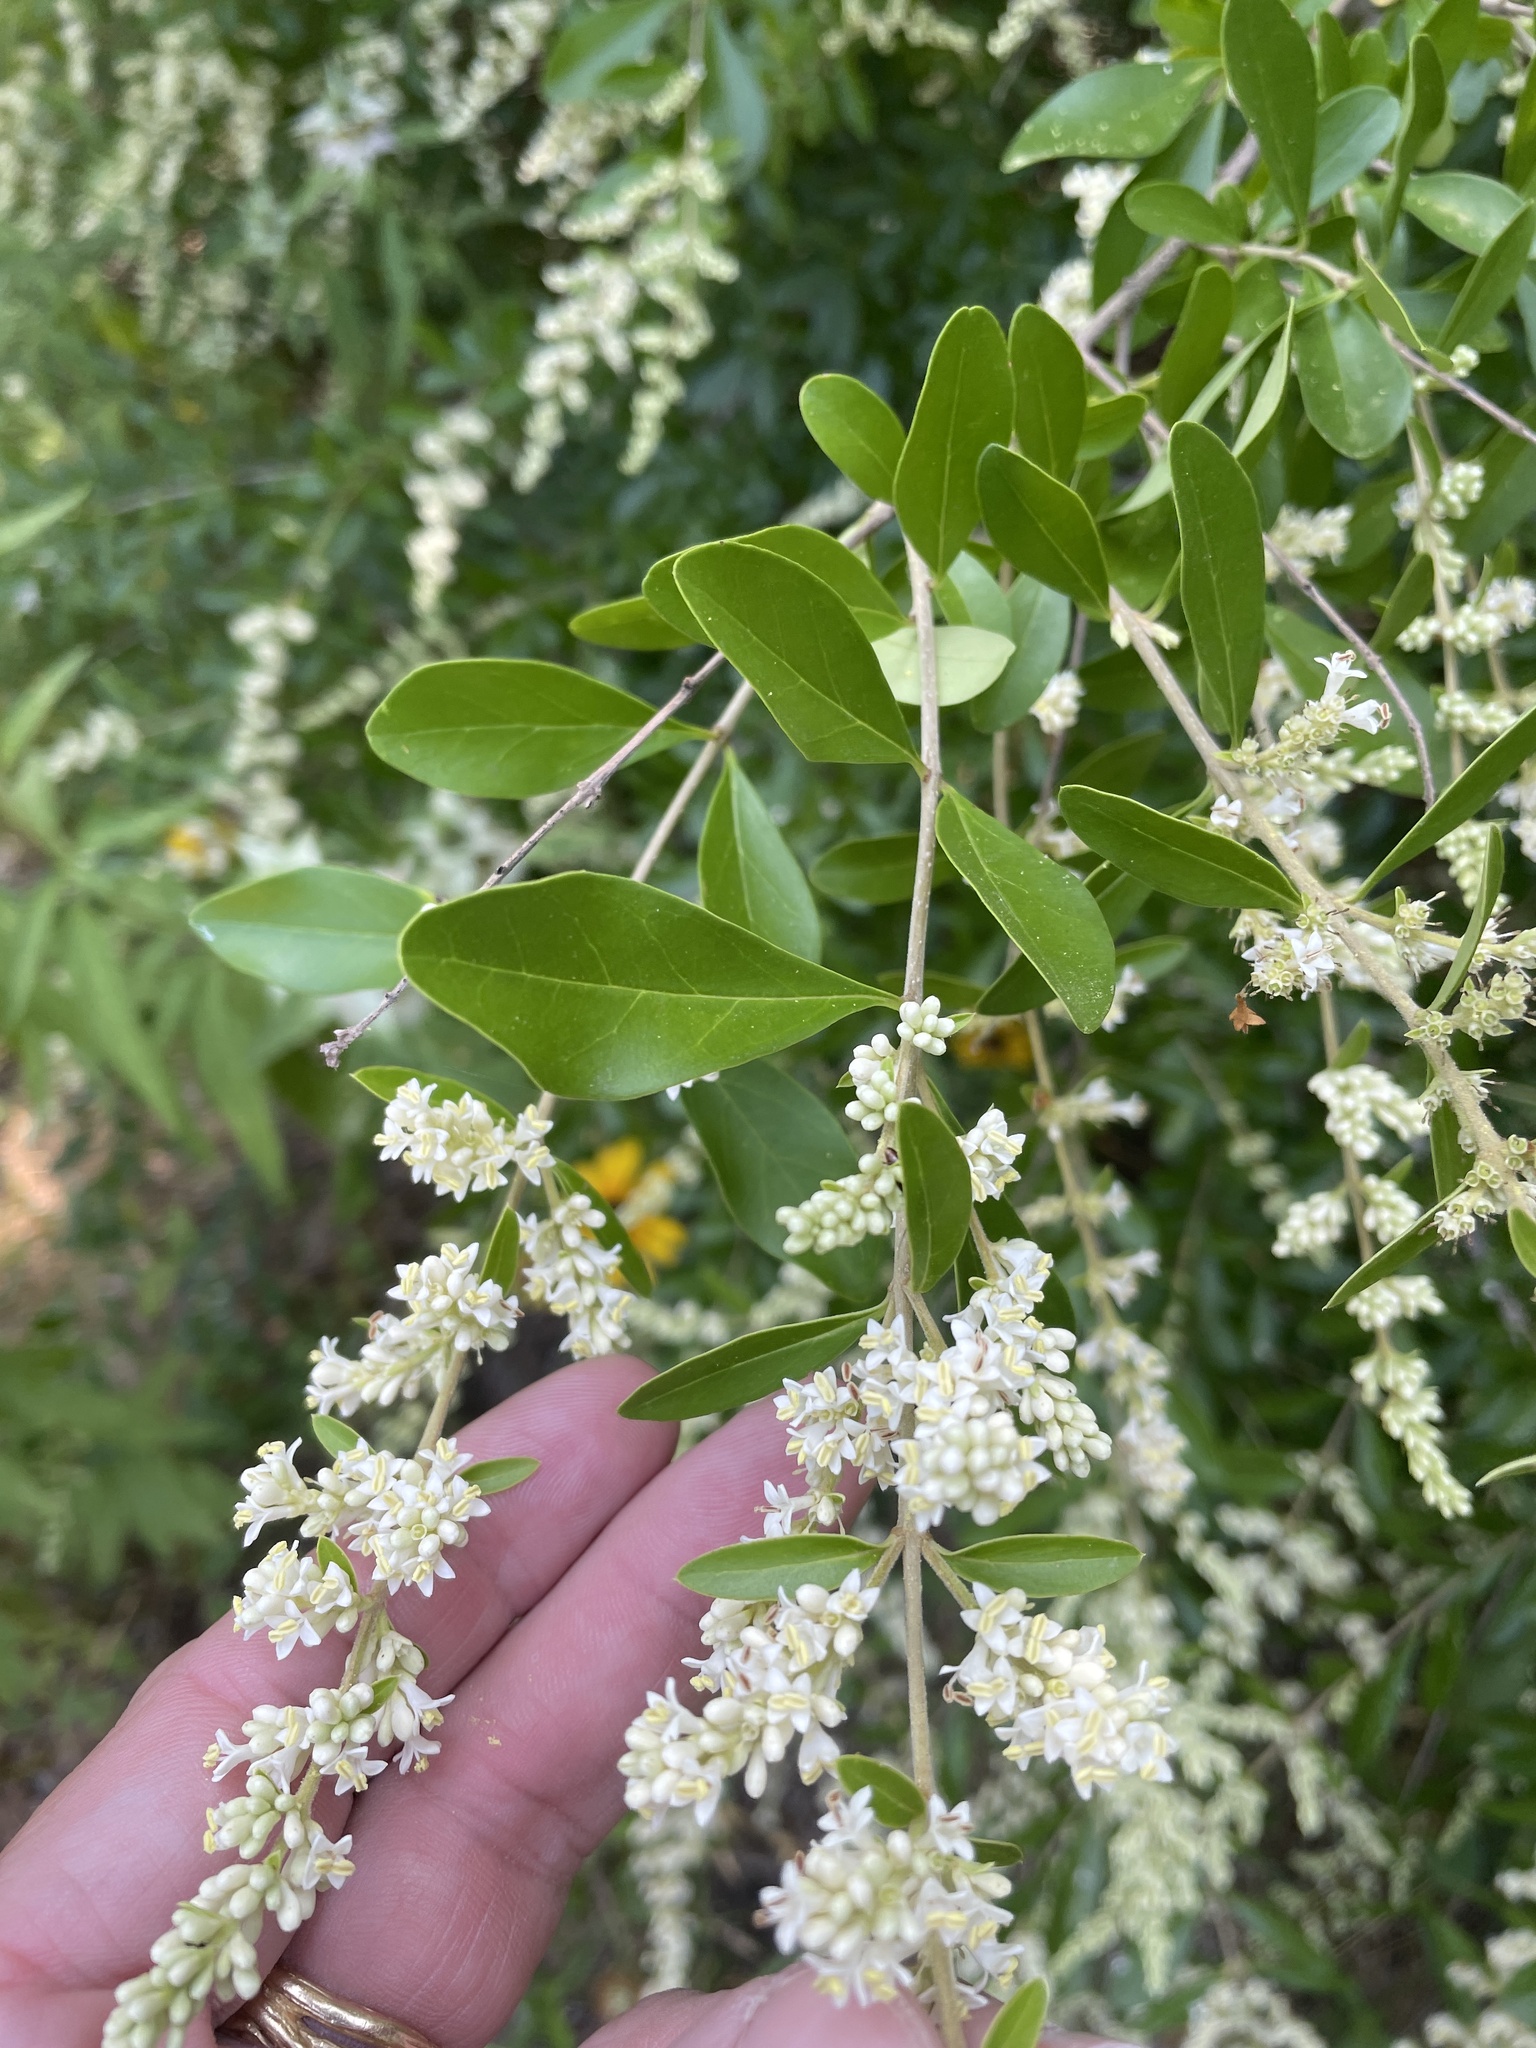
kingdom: Plantae
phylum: Tracheophyta
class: Magnoliopsida
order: Lamiales
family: Oleaceae
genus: Ligustrum
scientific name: Ligustrum quihoui
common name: Waxyleaf privet
